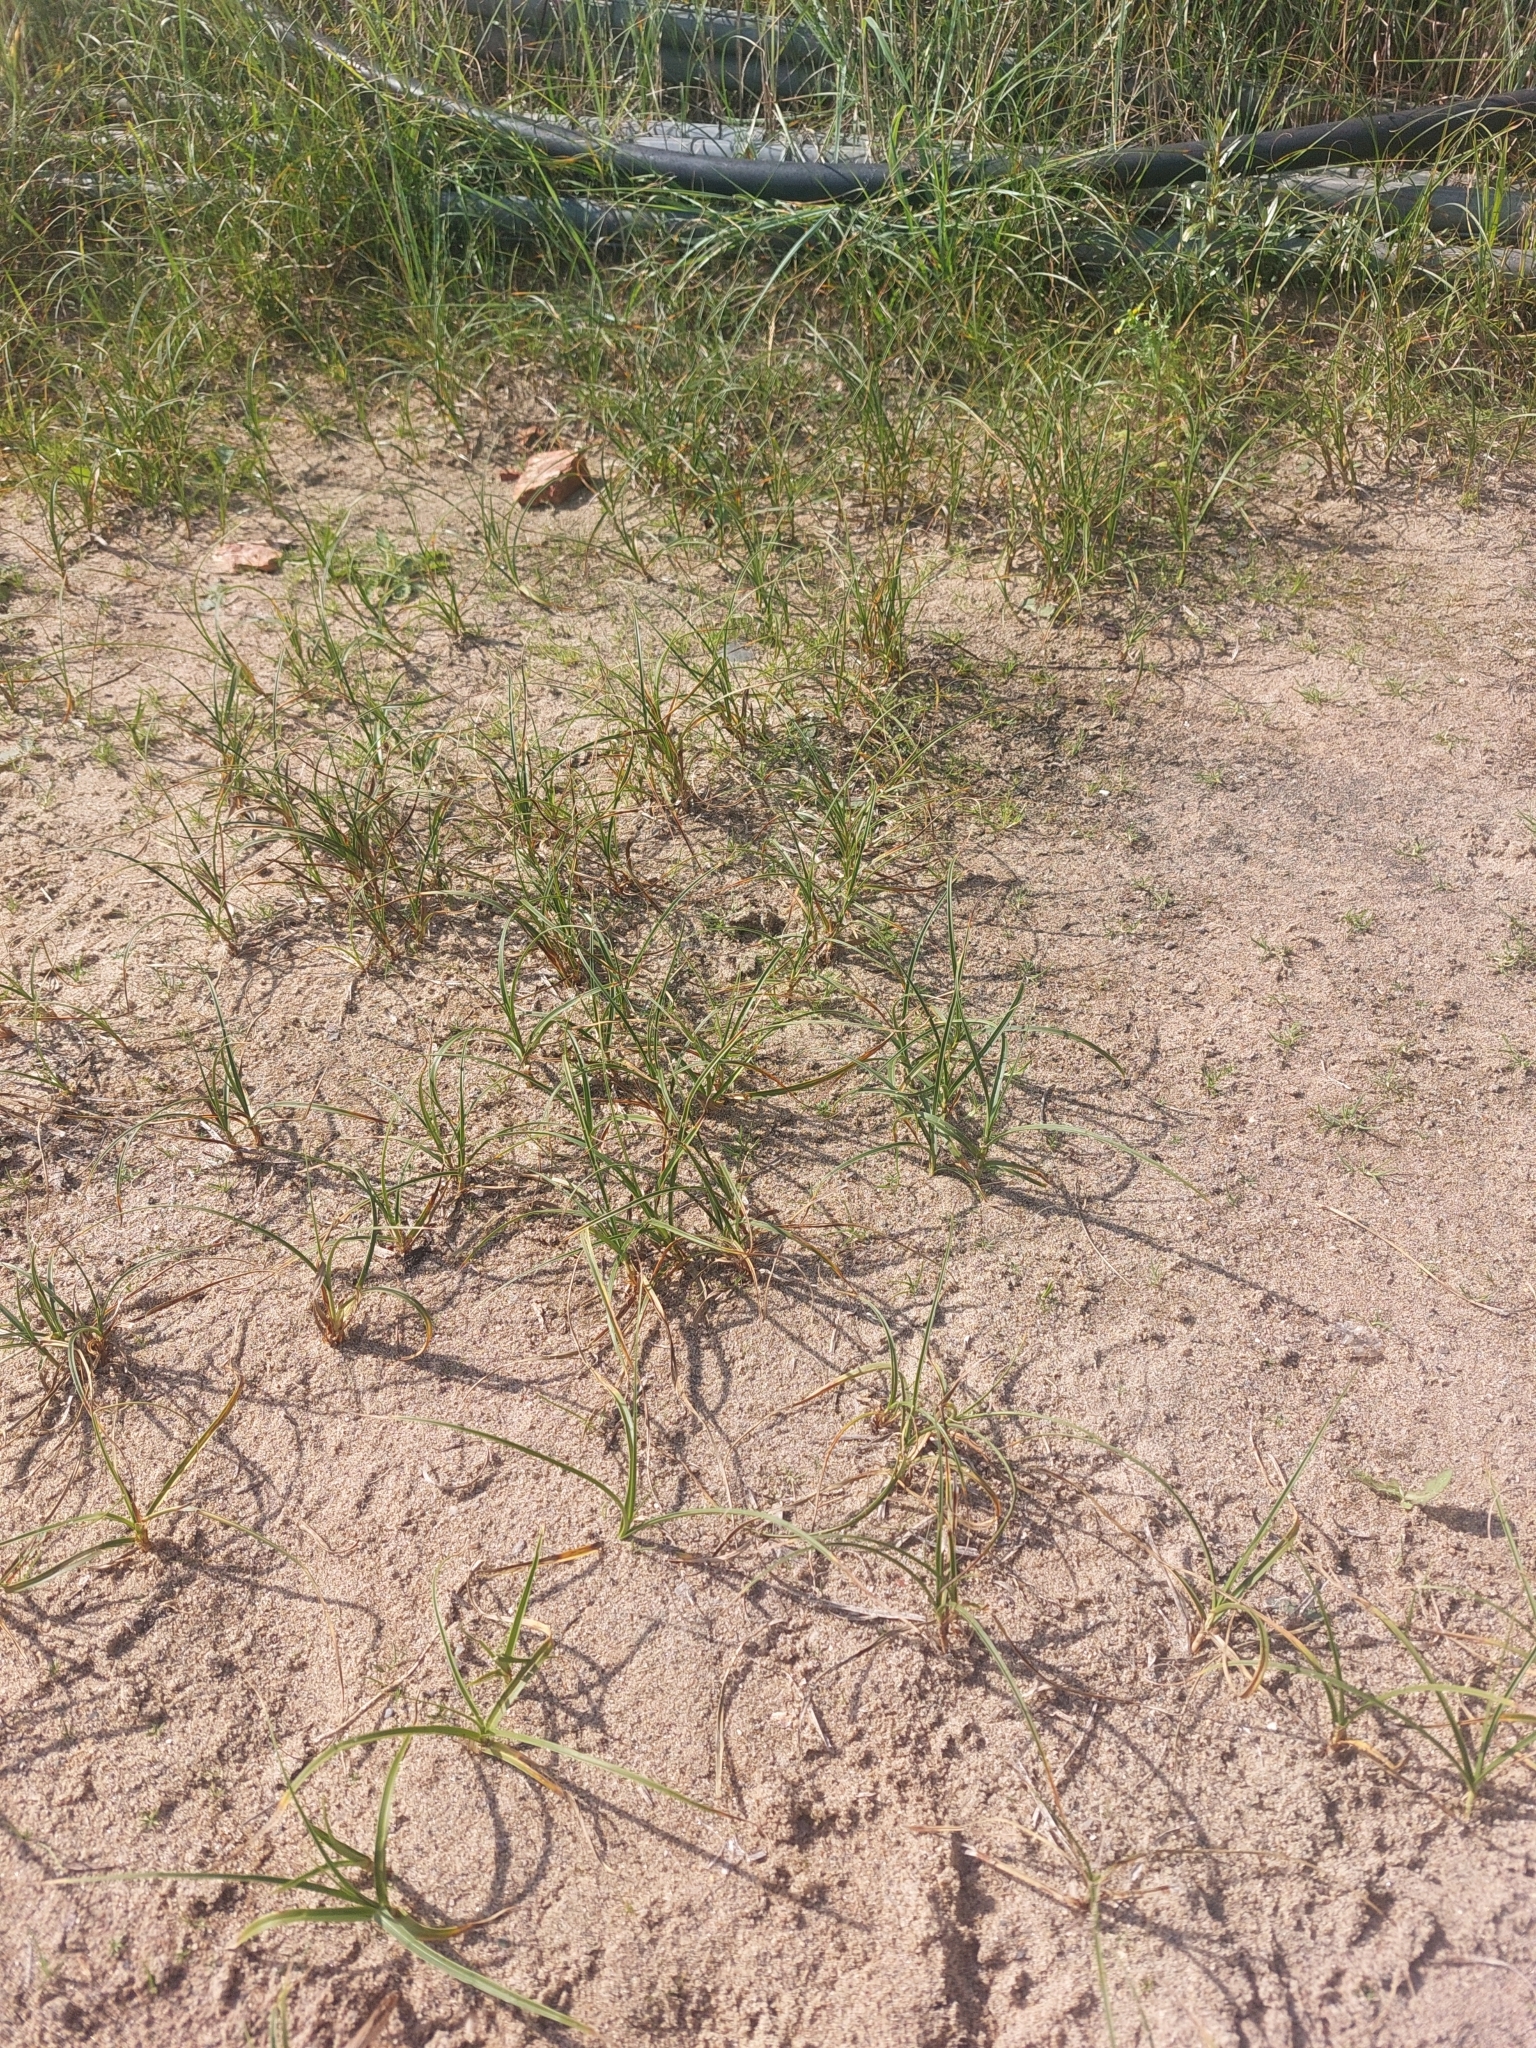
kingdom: Plantae
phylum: Tracheophyta
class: Liliopsida
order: Poales
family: Cyperaceae
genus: Carex
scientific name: Carex arenaria
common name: Sand sedge
